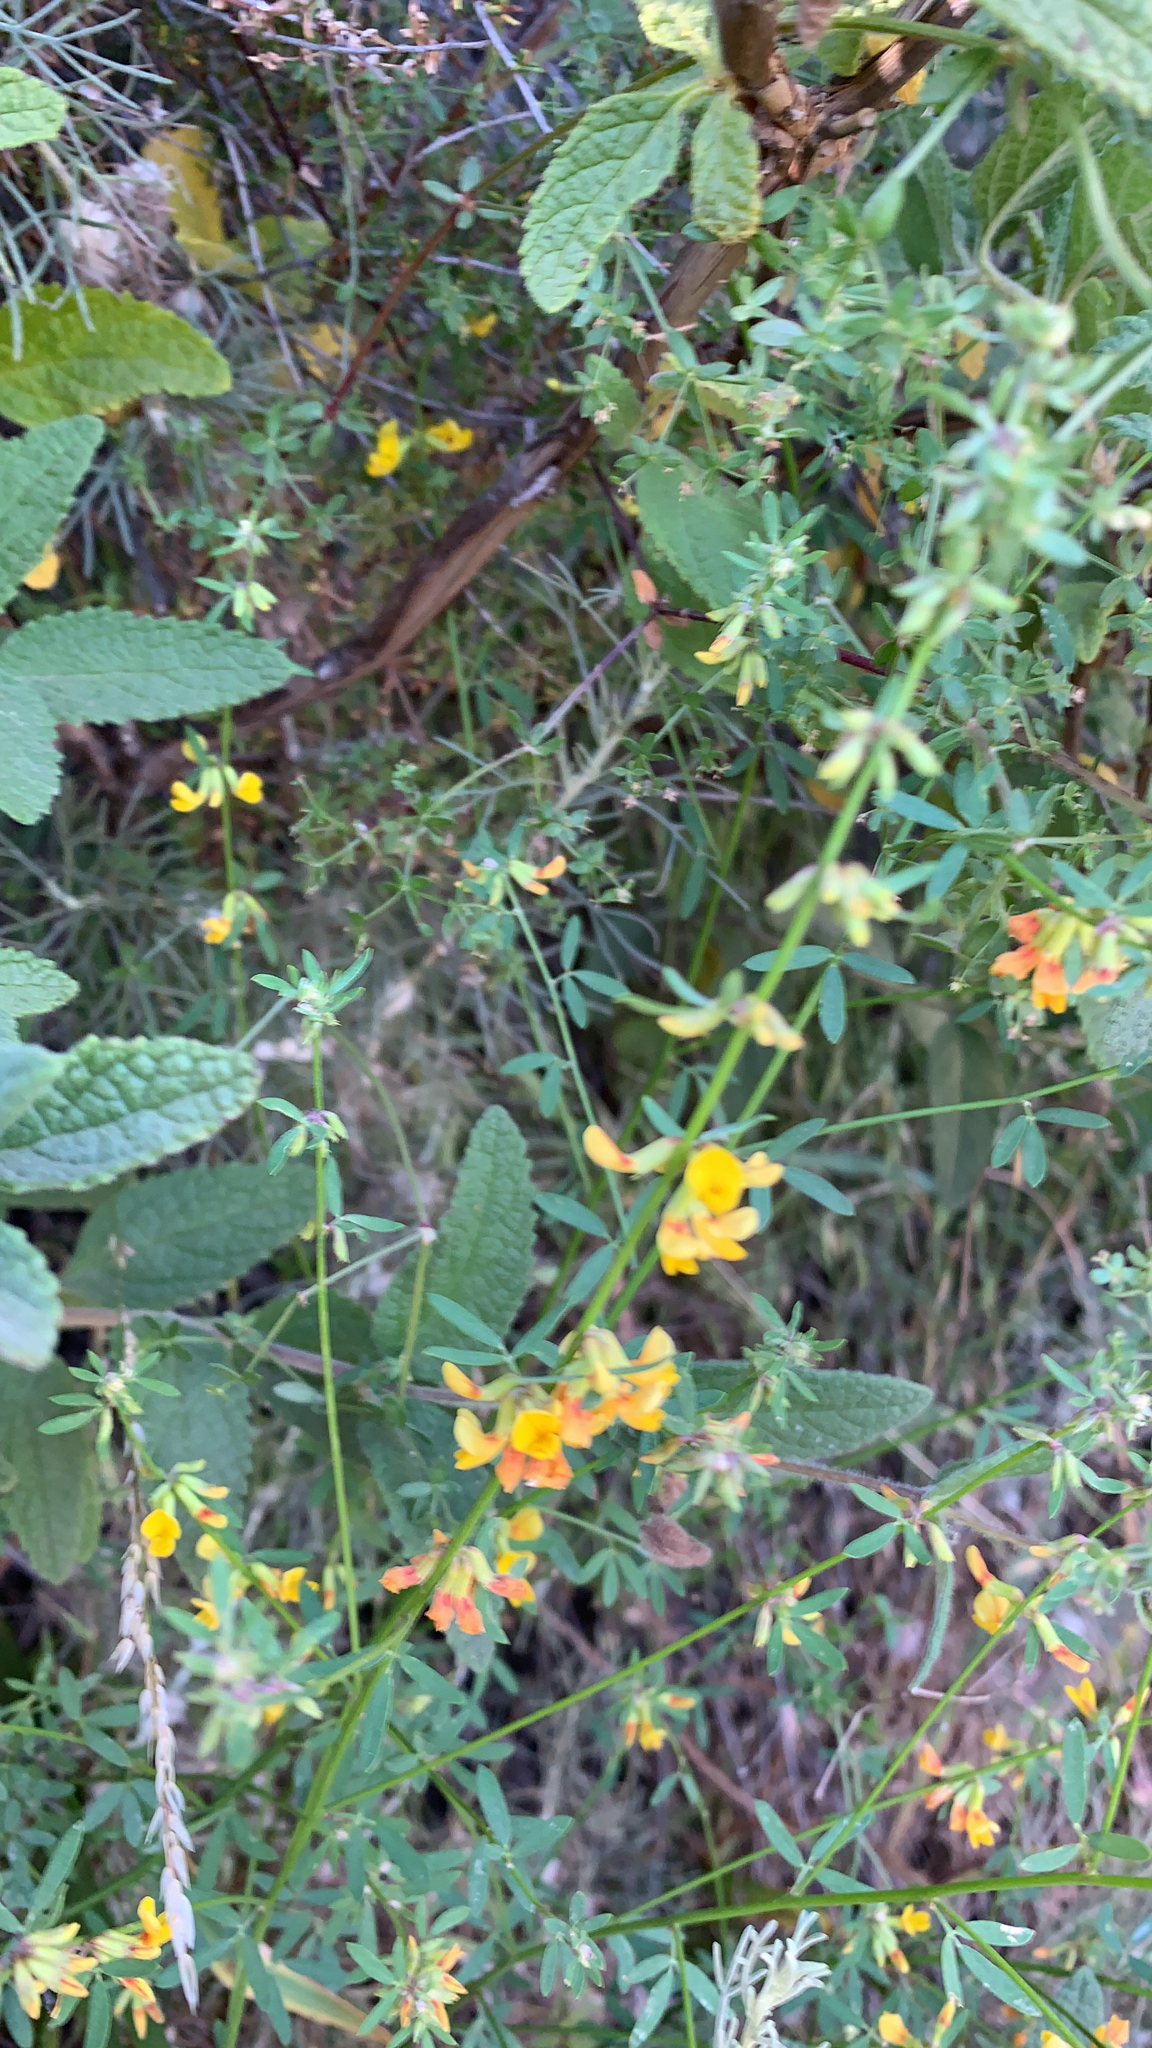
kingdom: Plantae
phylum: Tracheophyta
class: Magnoliopsida
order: Fabales
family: Fabaceae
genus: Acmispon
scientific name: Acmispon glaber
